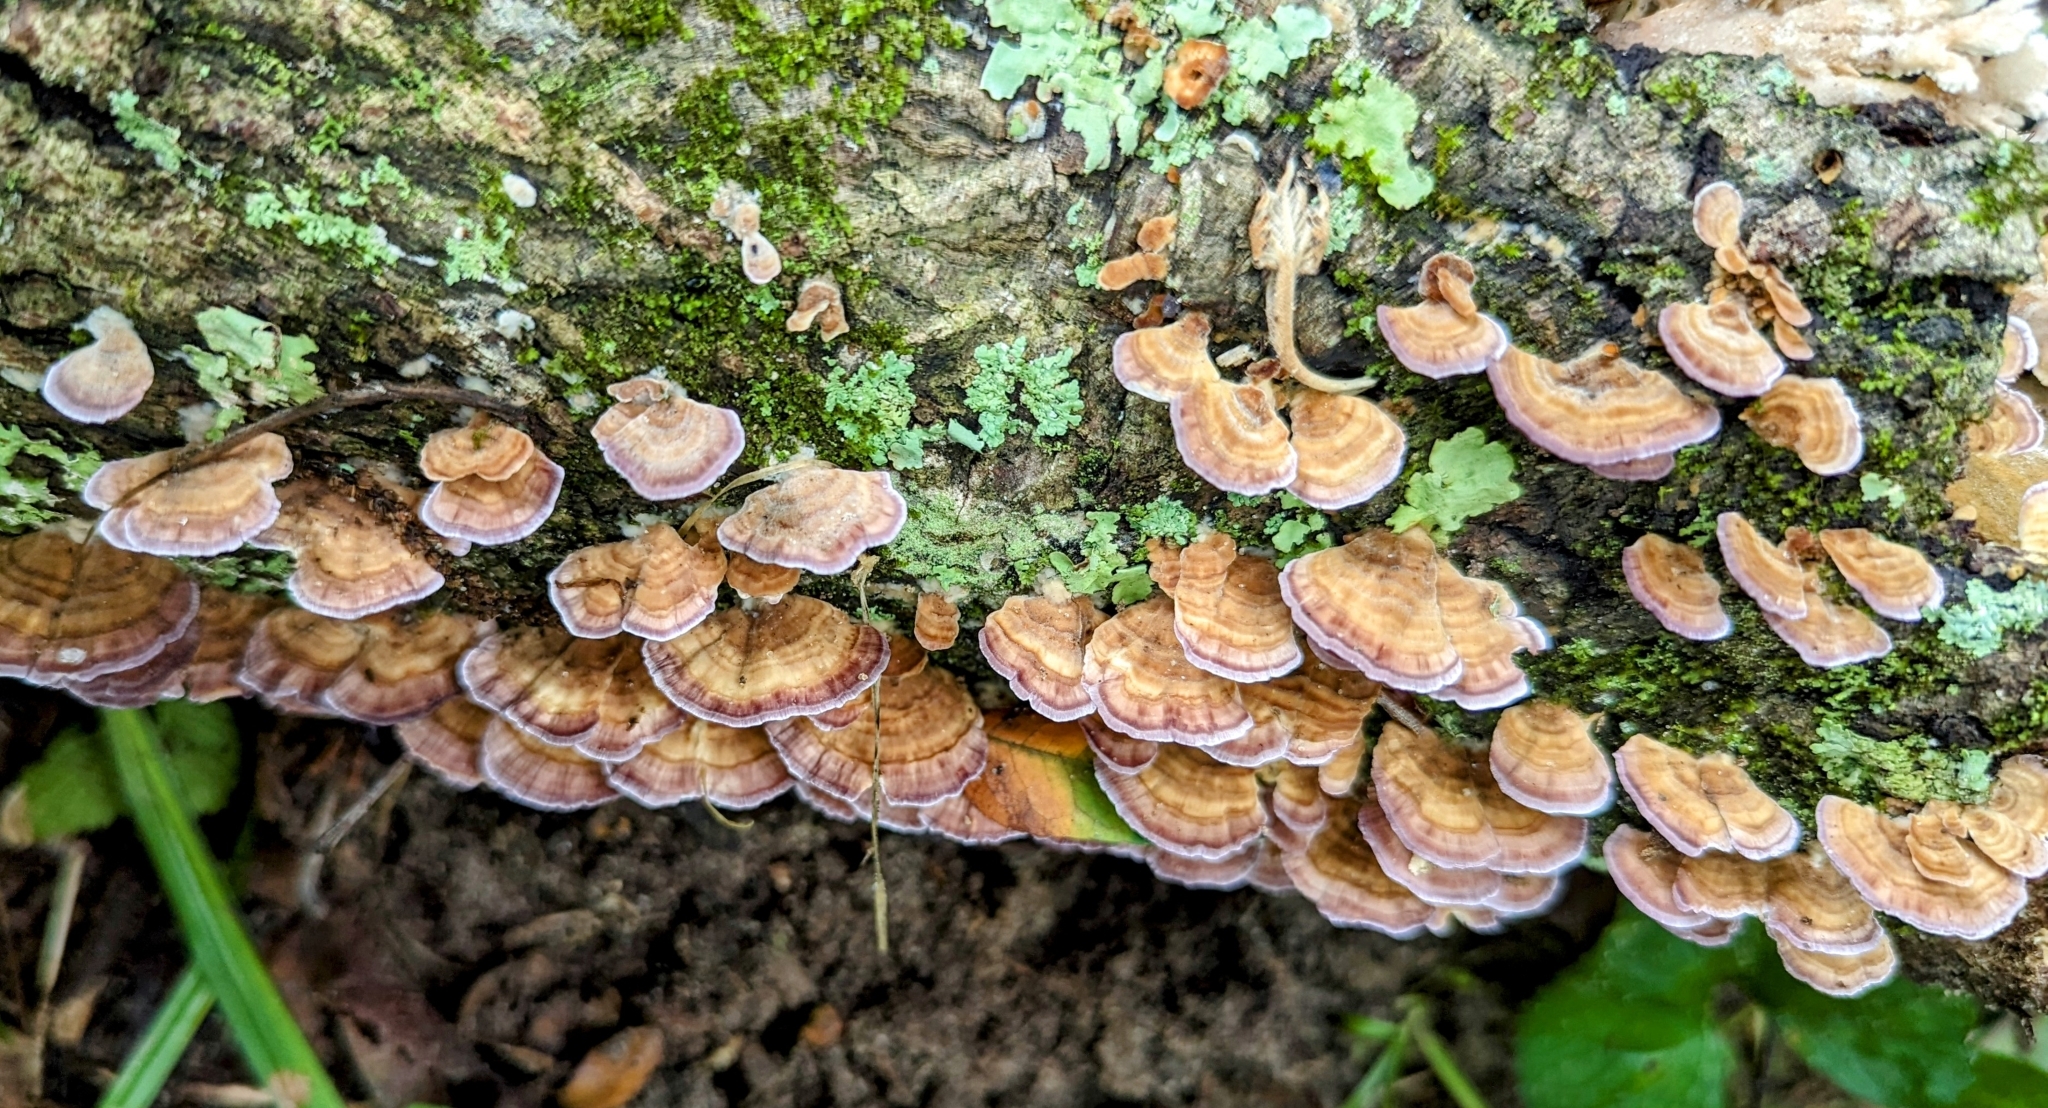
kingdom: Fungi
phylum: Basidiomycota
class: Agaricomycetes
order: Hymenochaetales
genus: Trichaptum
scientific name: Trichaptum biforme
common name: Violet-toothed polypore
